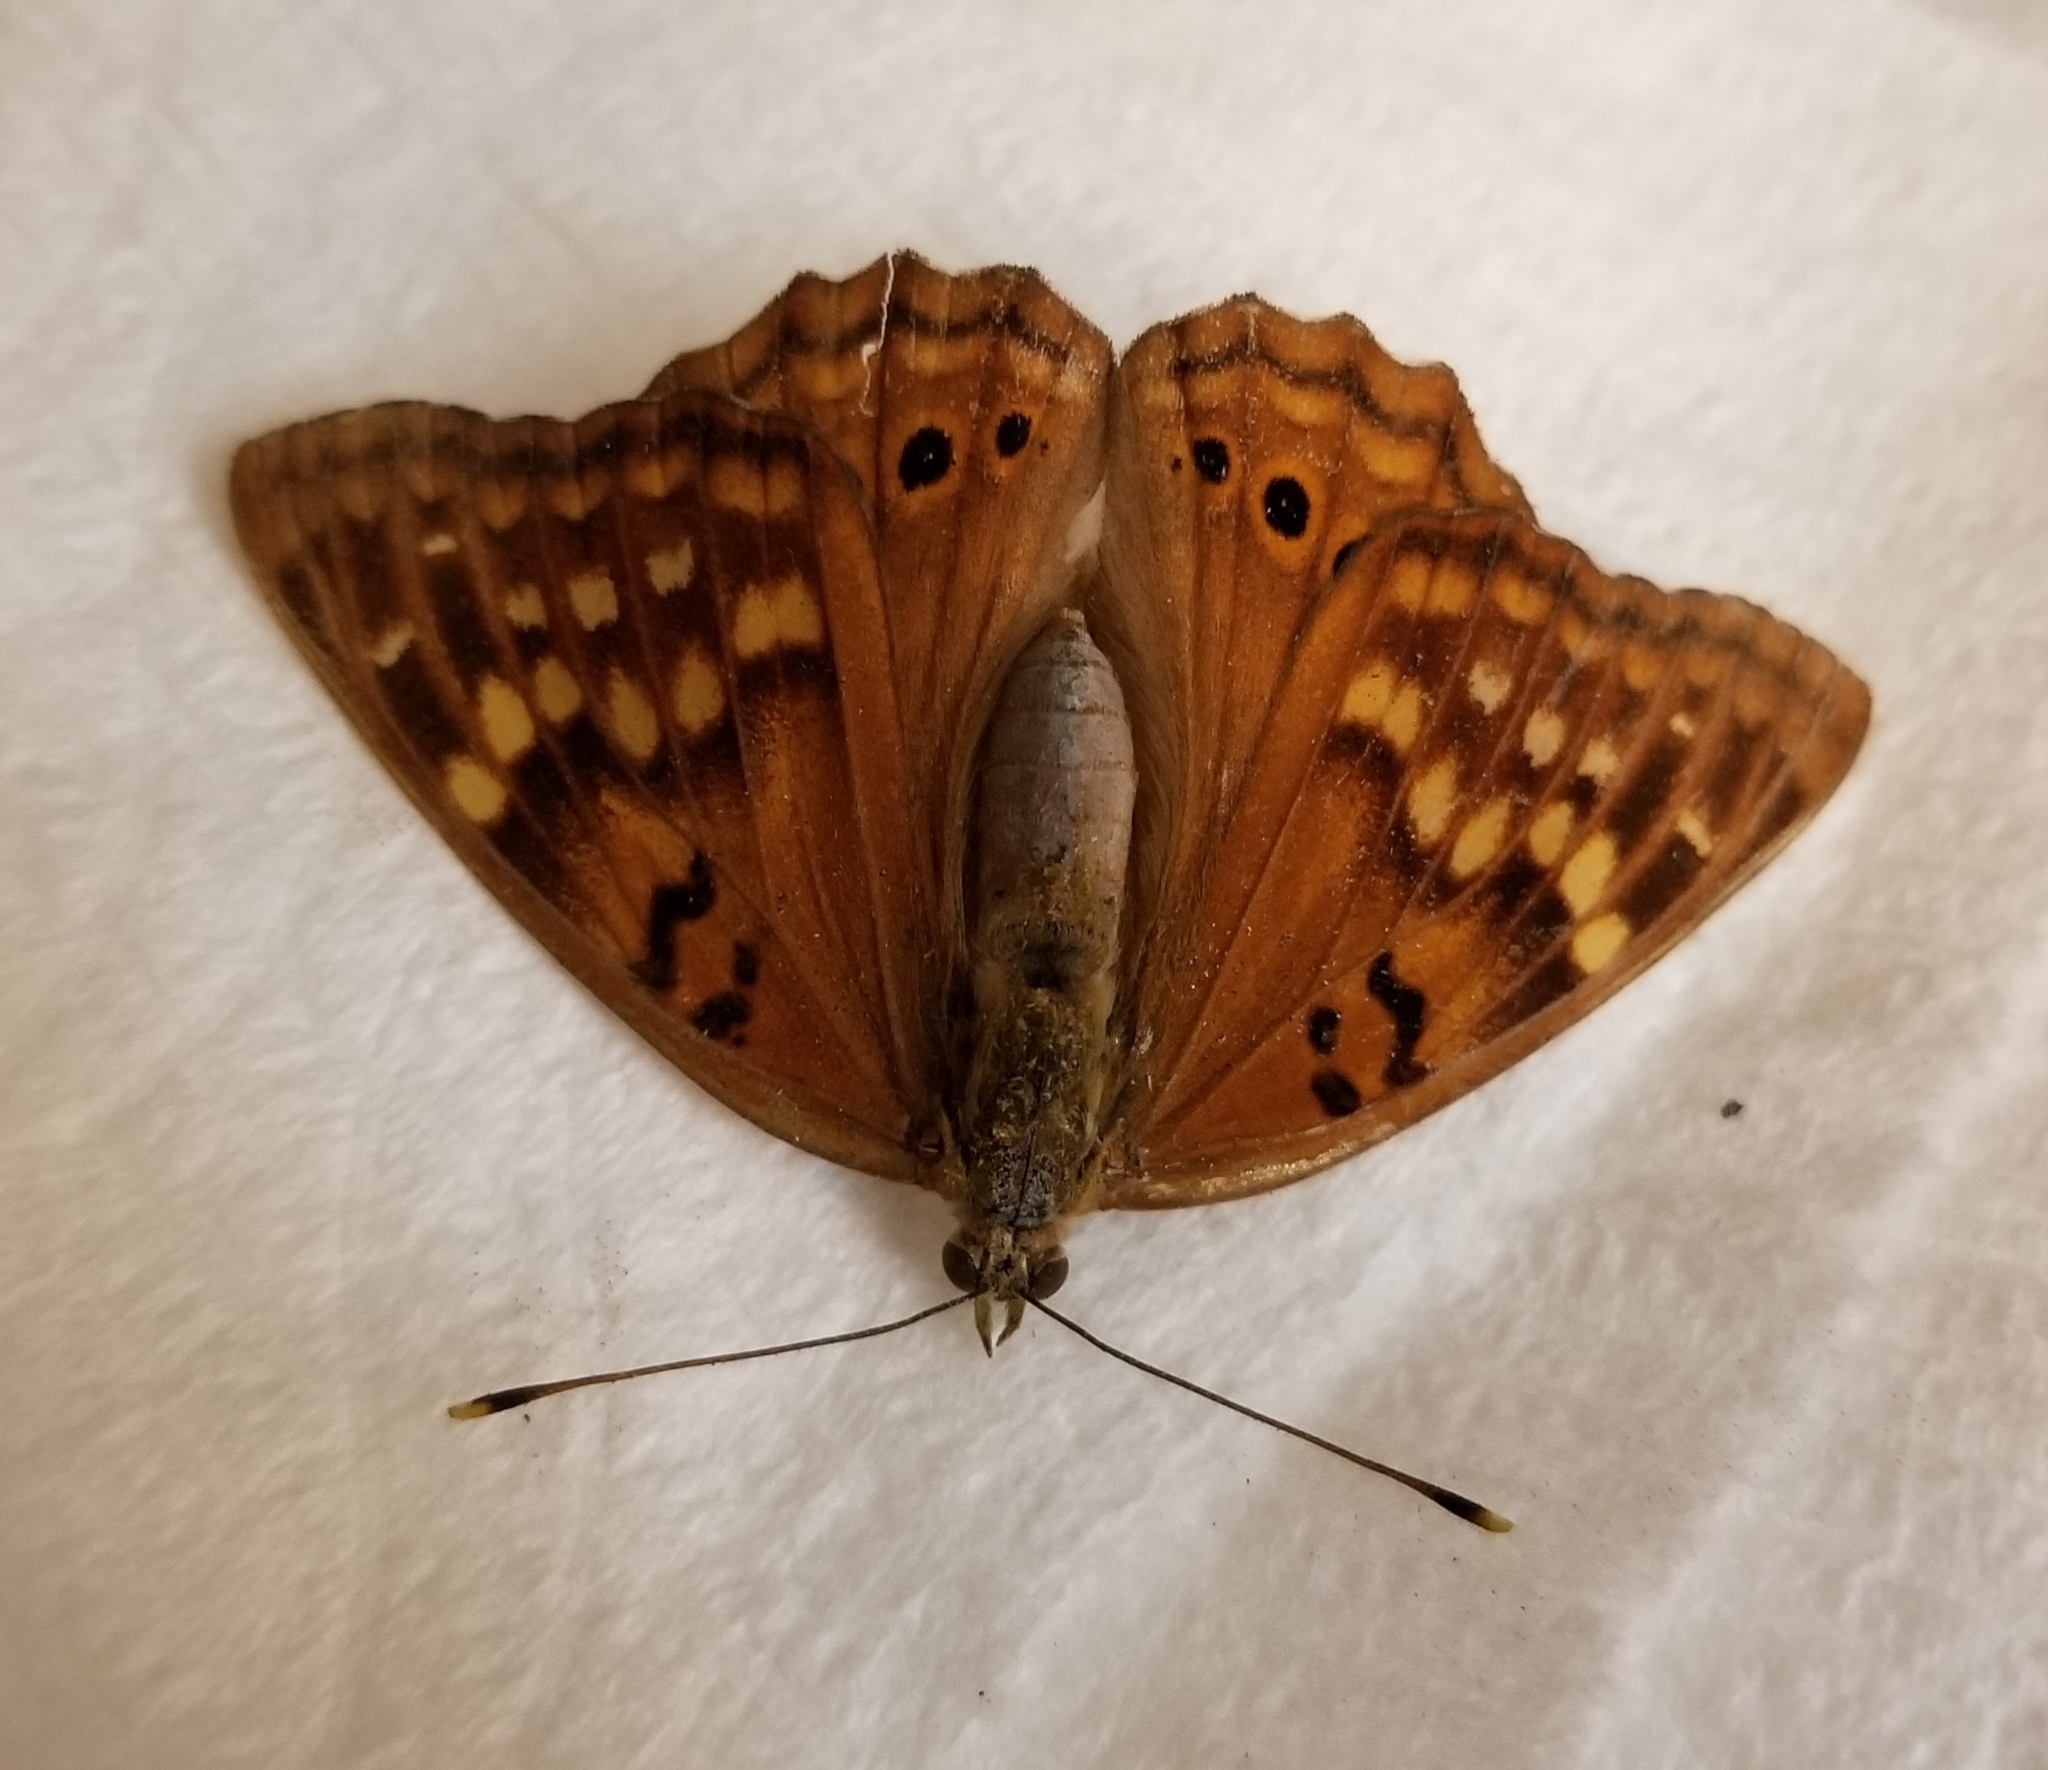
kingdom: Animalia
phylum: Arthropoda
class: Insecta
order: Lepidoptera
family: Nymphalidae
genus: Asterocampa
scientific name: Asterocampa clyton
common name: Tawny emperor
